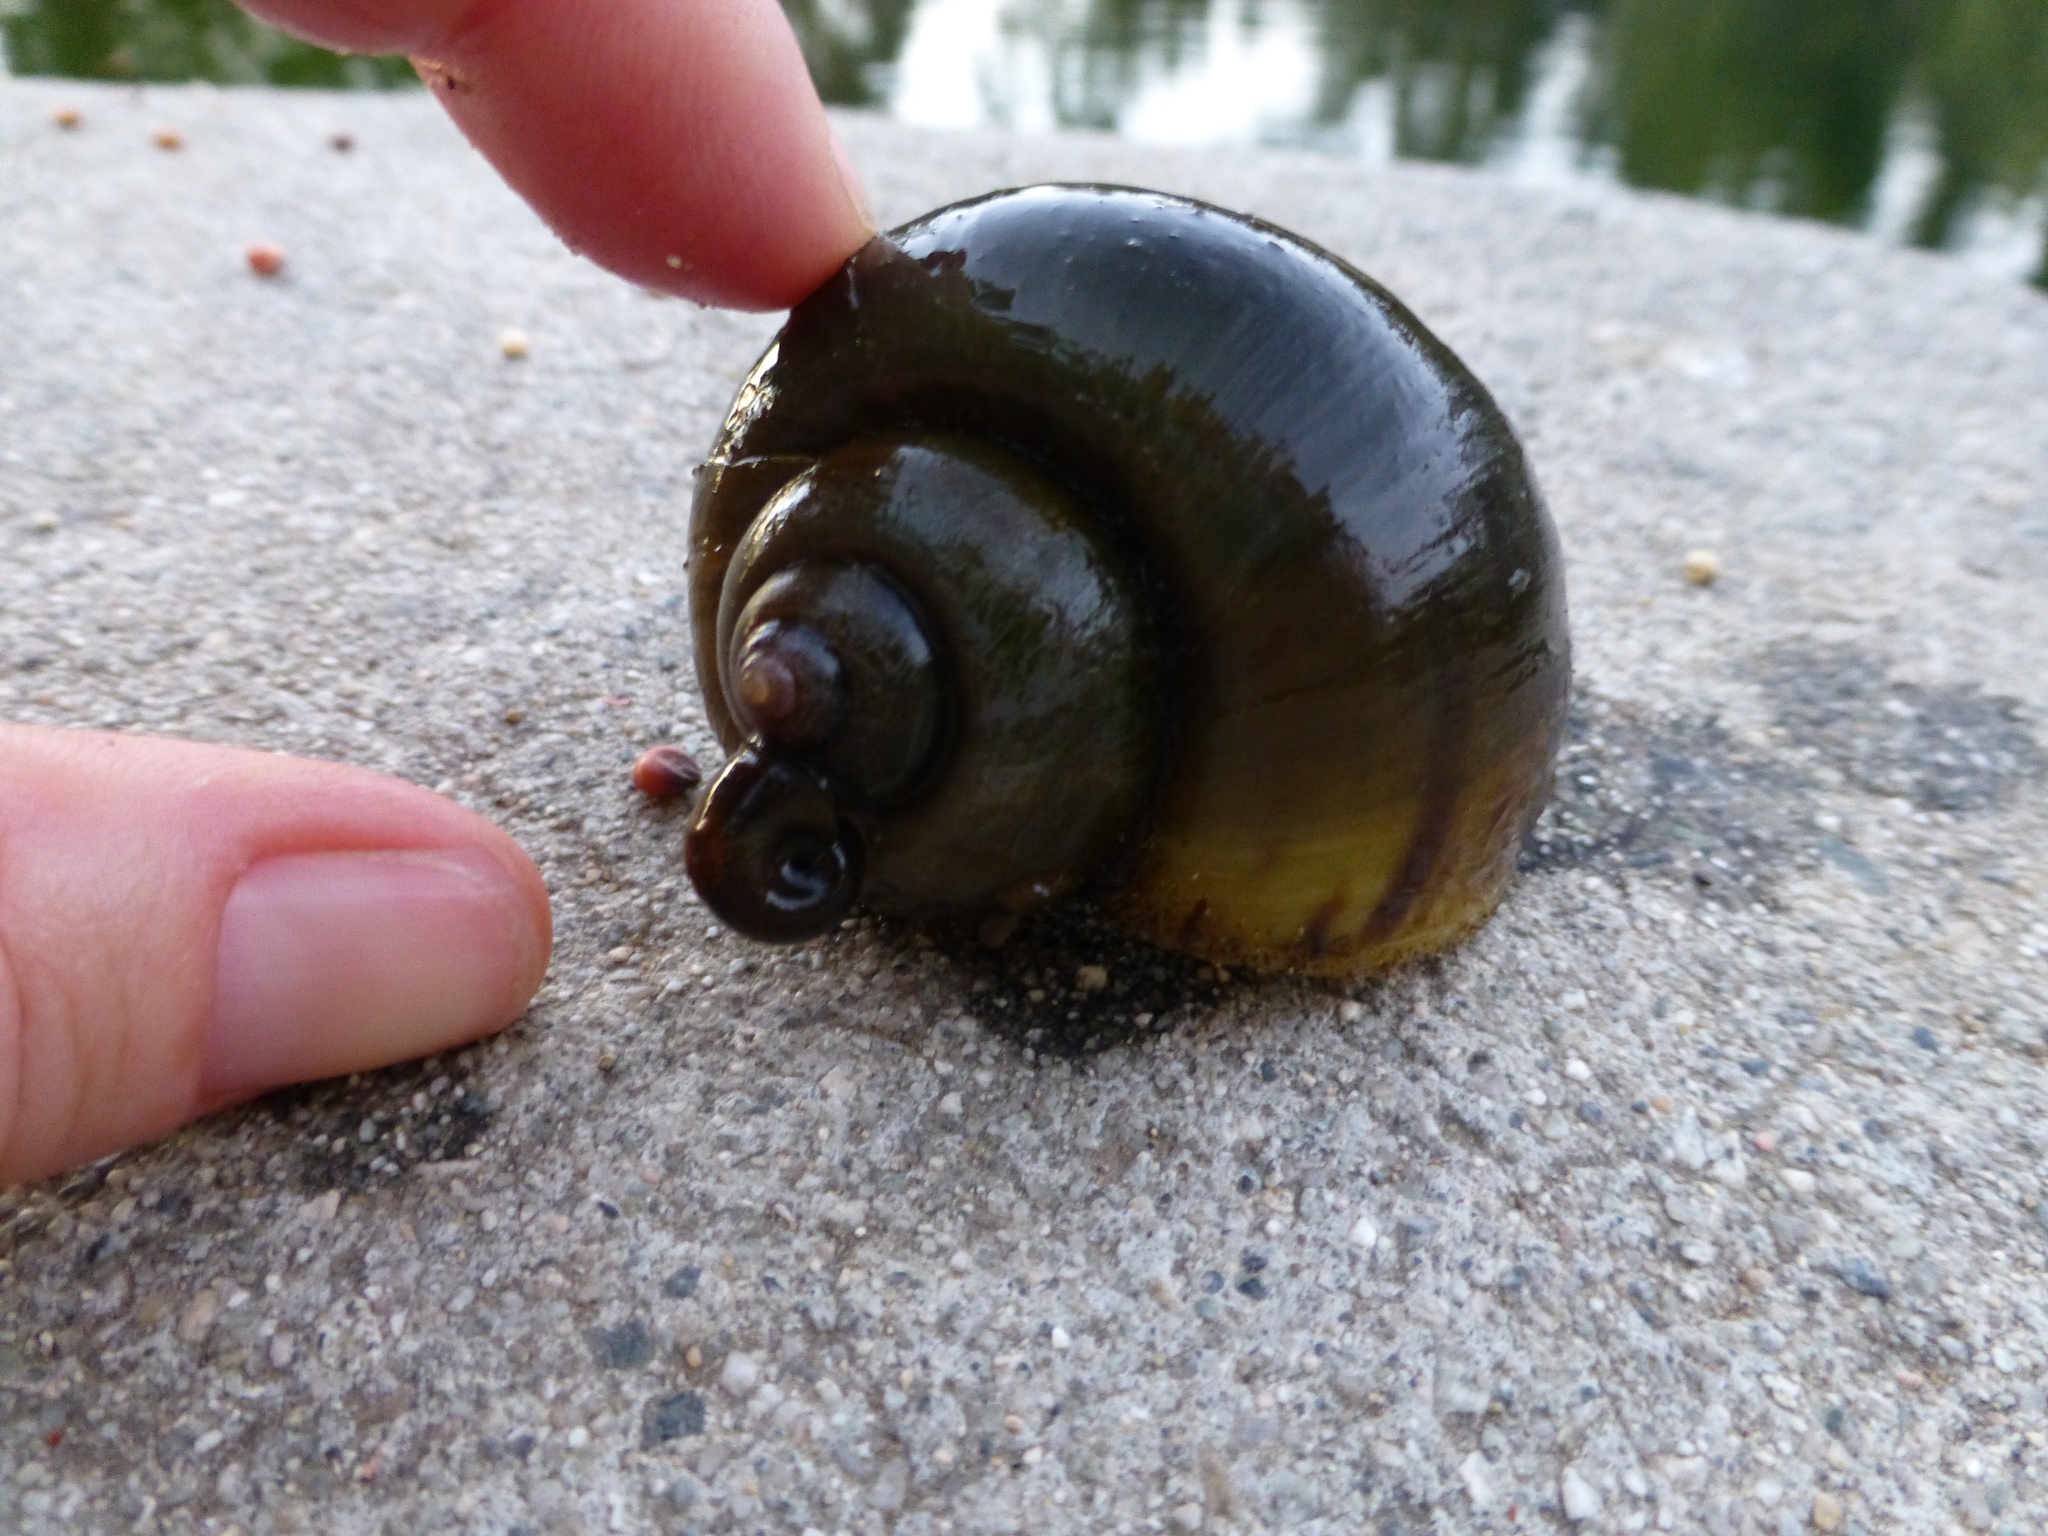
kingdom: Animalia
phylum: Mollusca
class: Gastropoda
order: Architaenioglossa
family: Ampullariidae
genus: Pomacea
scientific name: Pomacea canaliculata
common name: Channeled applesnail
